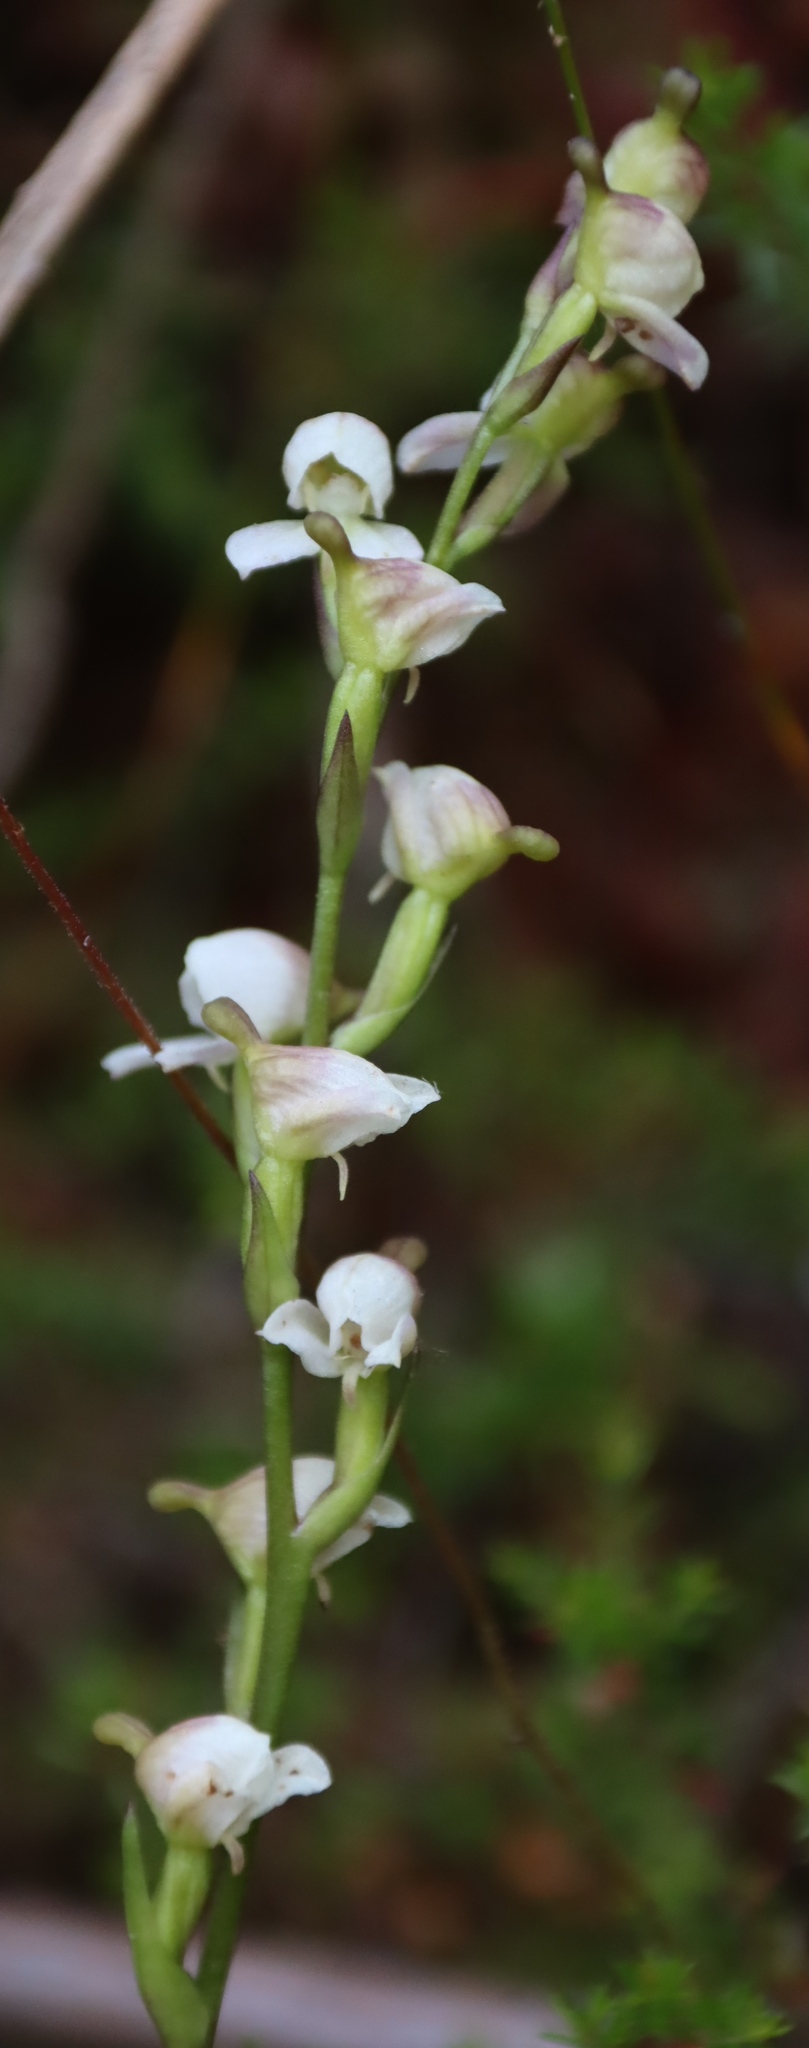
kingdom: Plantae
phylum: Tracheophyta
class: Liliopsida
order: Asparagales
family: Orchidaceae
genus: Disa
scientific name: Disa uncinata
